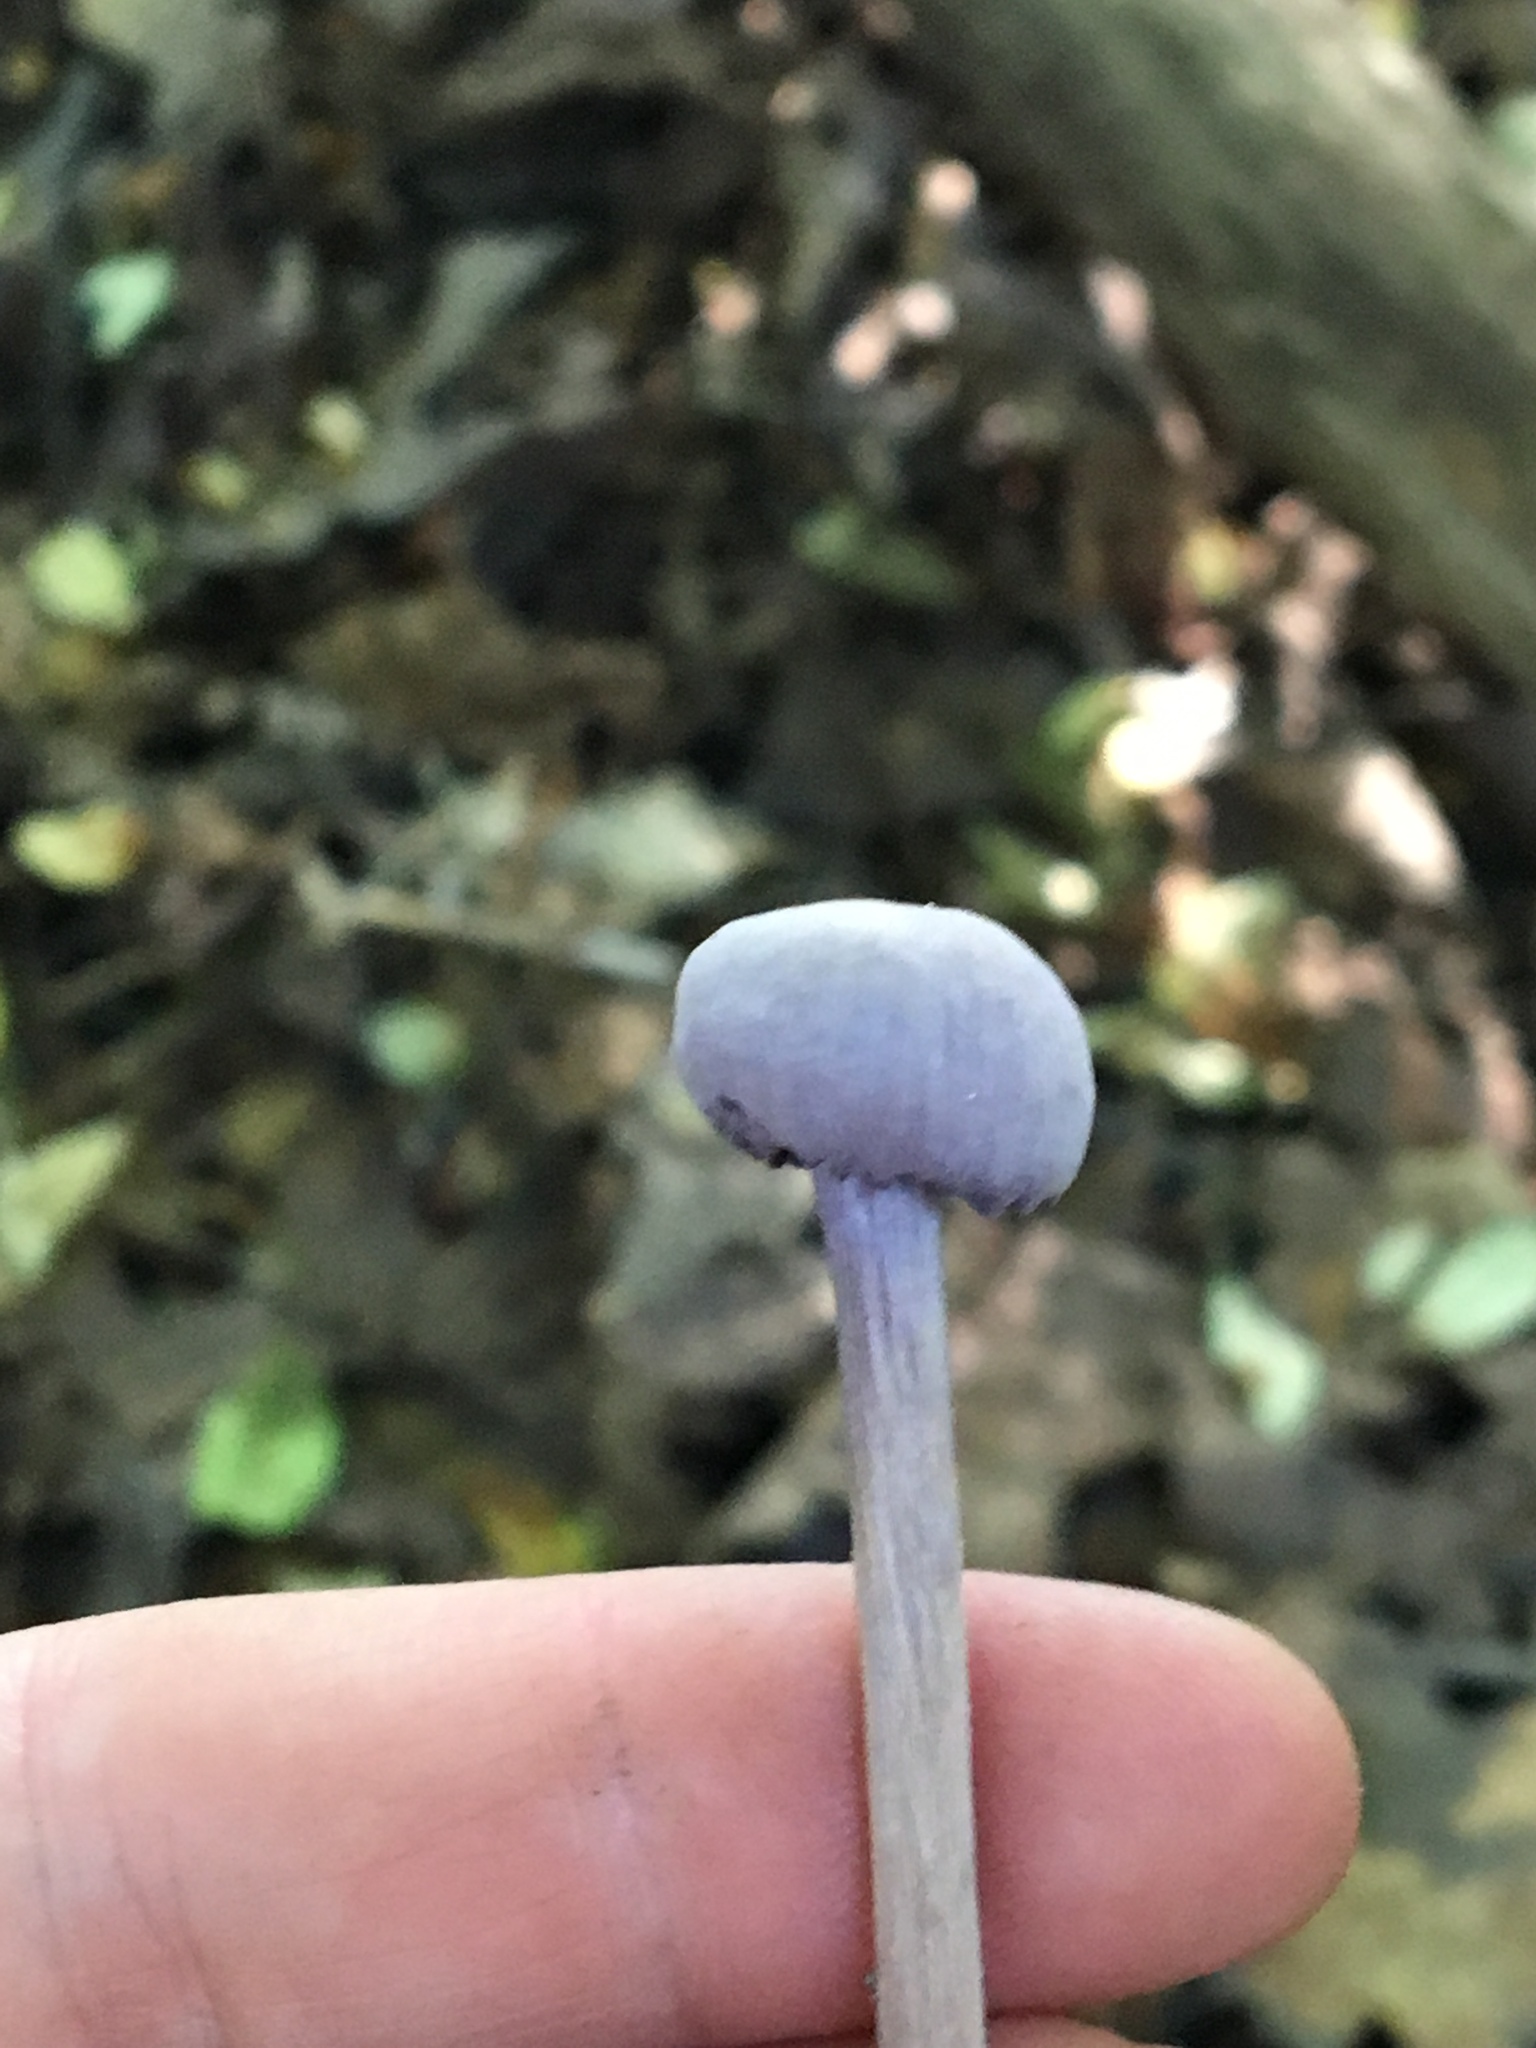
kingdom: Fungi
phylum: Basidiomycota
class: Agaricomycetes
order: Agaricales
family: Hydnangiaceae
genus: Laccaria
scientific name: Laccaria amethystina
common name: Amethyst deceiver
